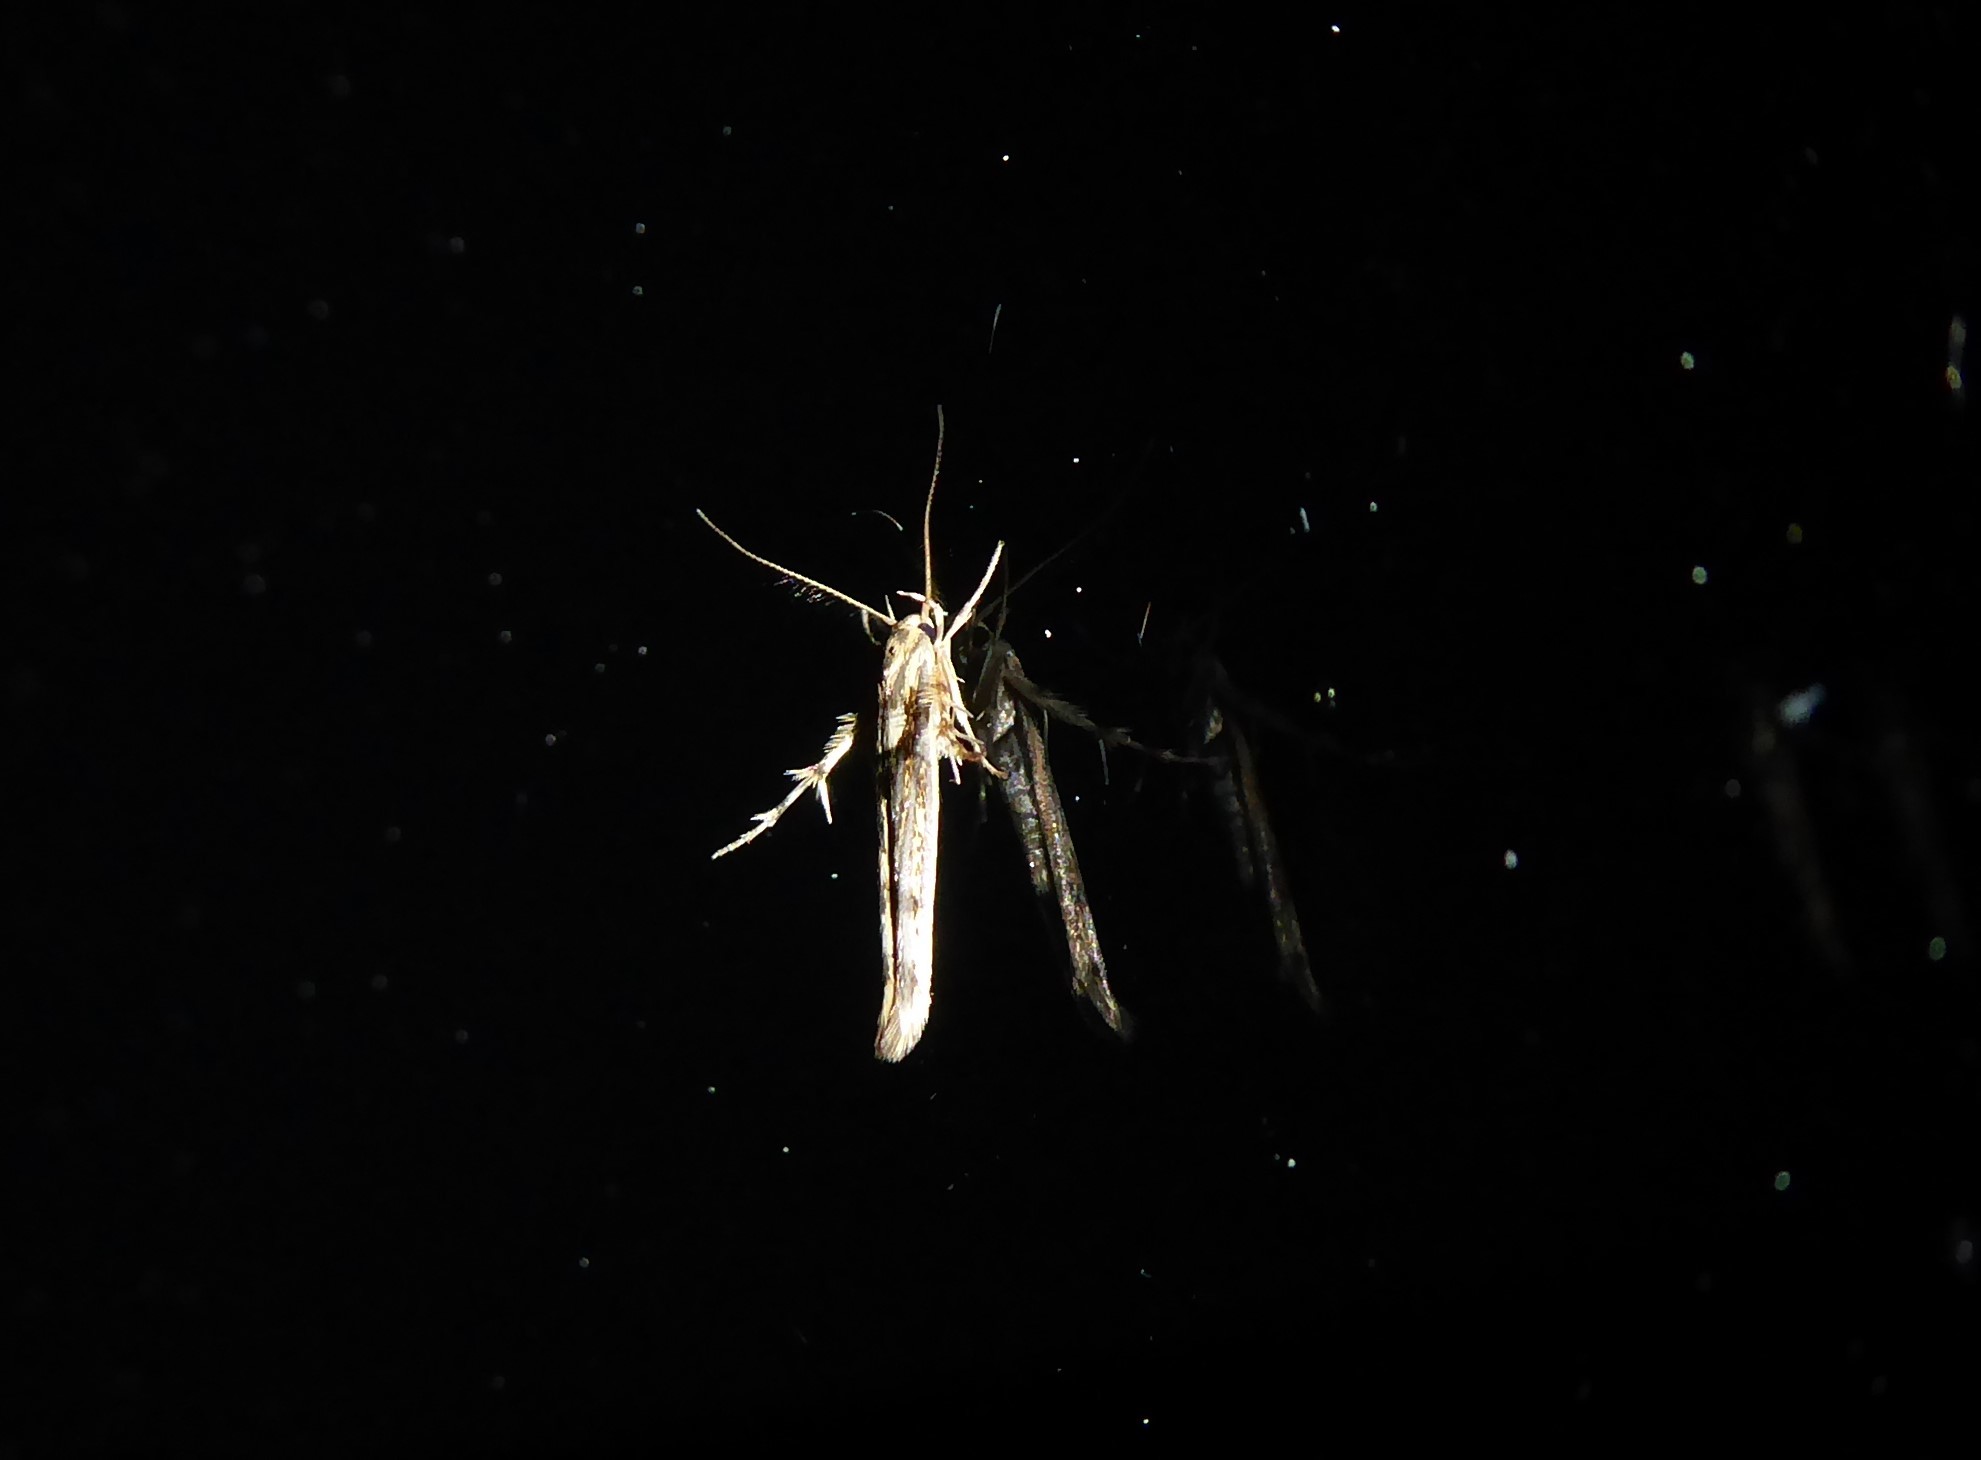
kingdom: Animalia
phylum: Arthropoda
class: Insecta
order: Lepidoptera
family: Stathmopodidae
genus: Stathmopoda
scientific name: Stathmopoda plumbiflua
